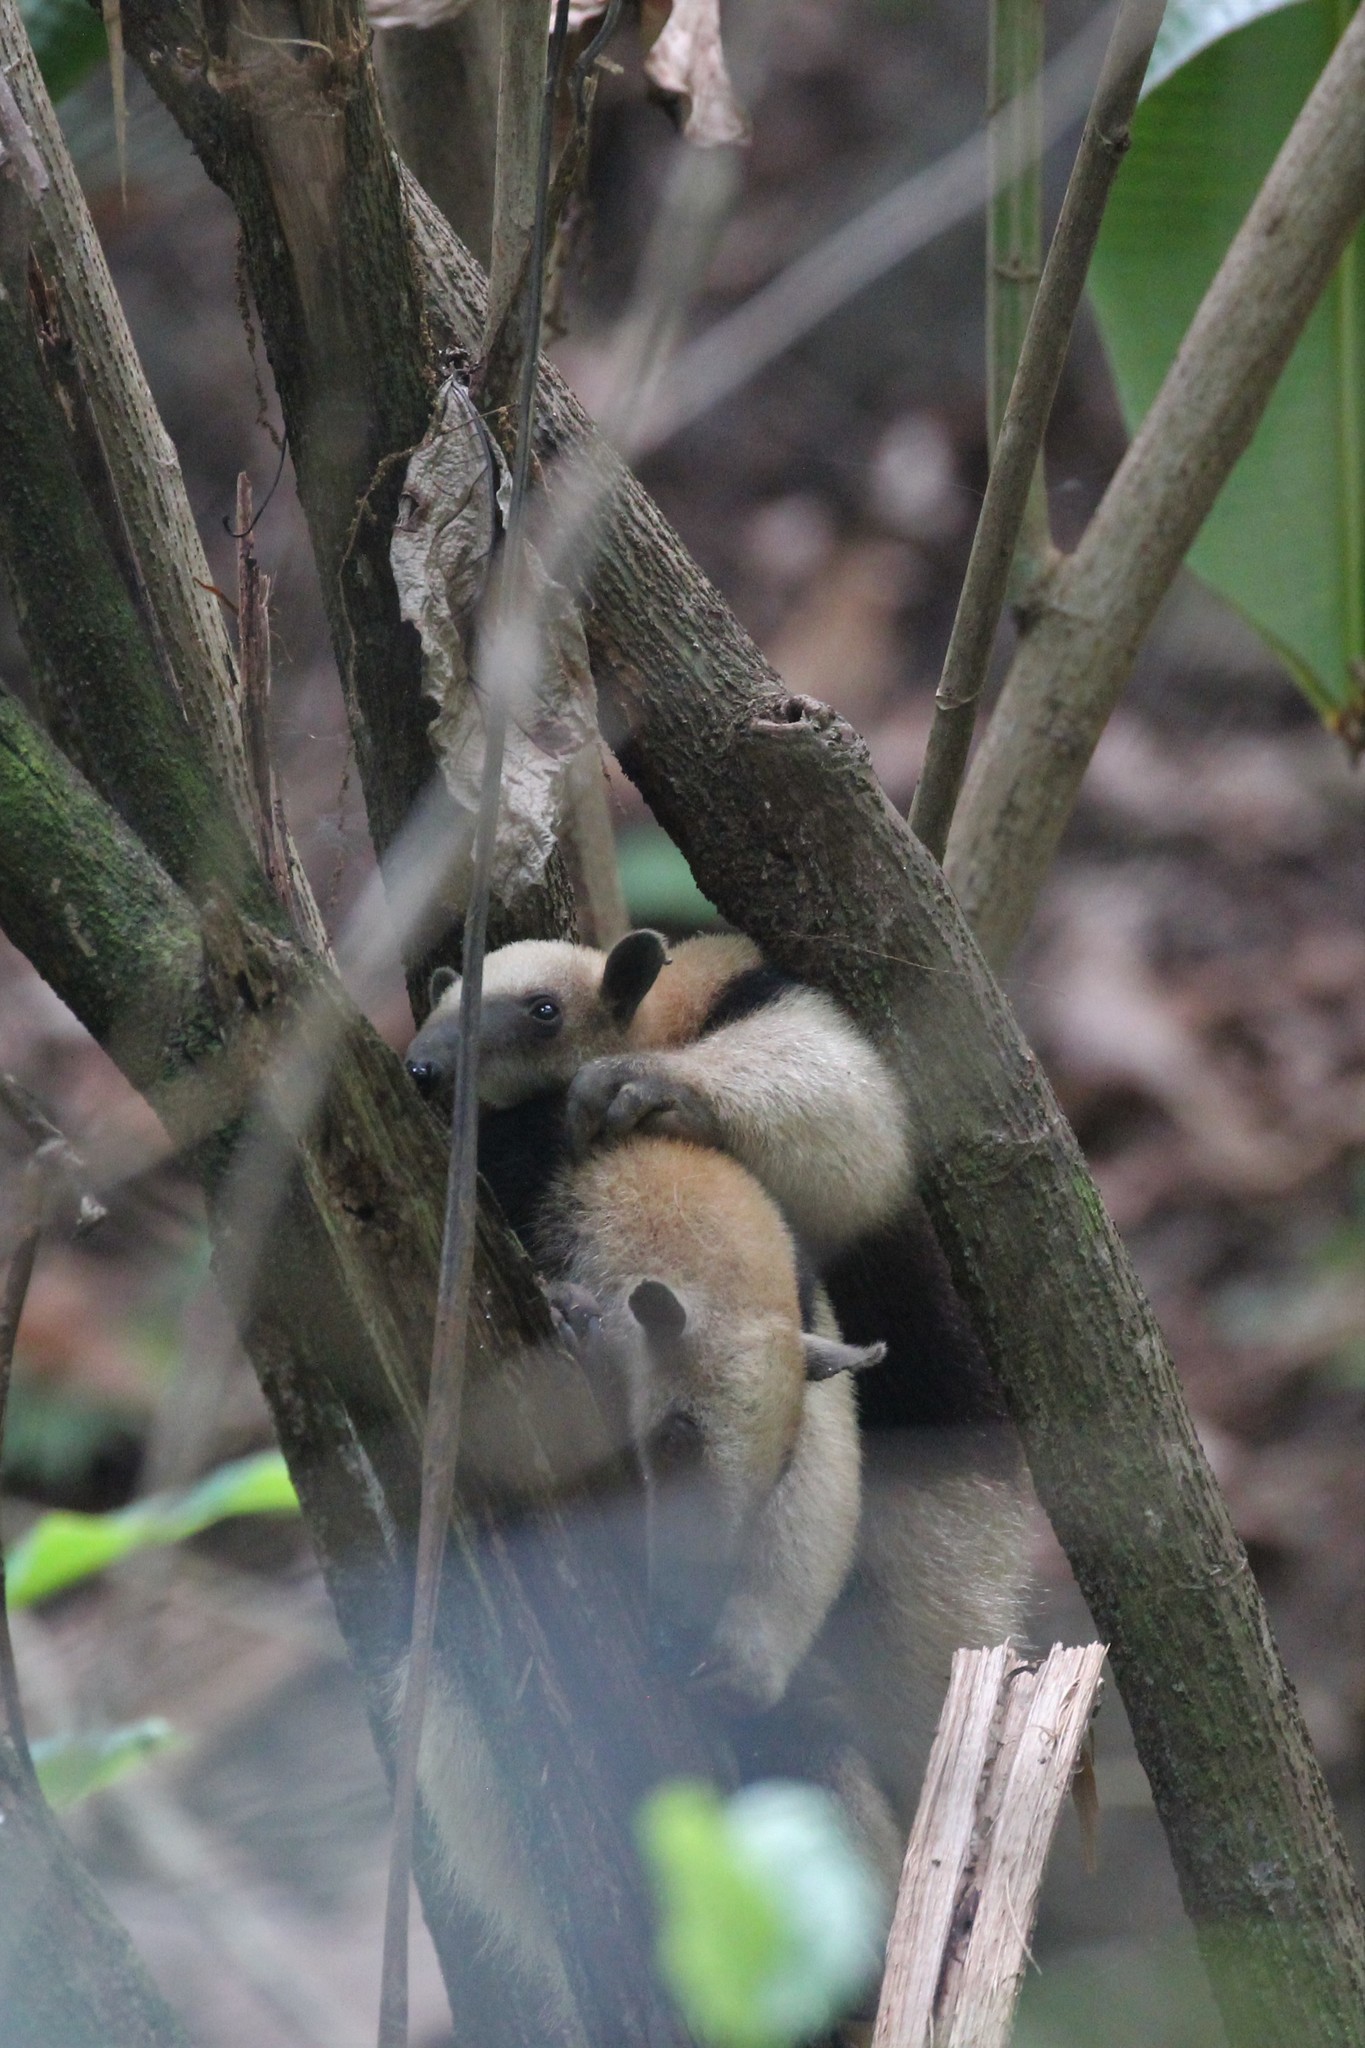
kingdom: Animalia
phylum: Chordata
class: Mammalia
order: Pilosa
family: Myrmecophagidae
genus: Tamandua
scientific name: Tamandua mexicana
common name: Northern tamandua
